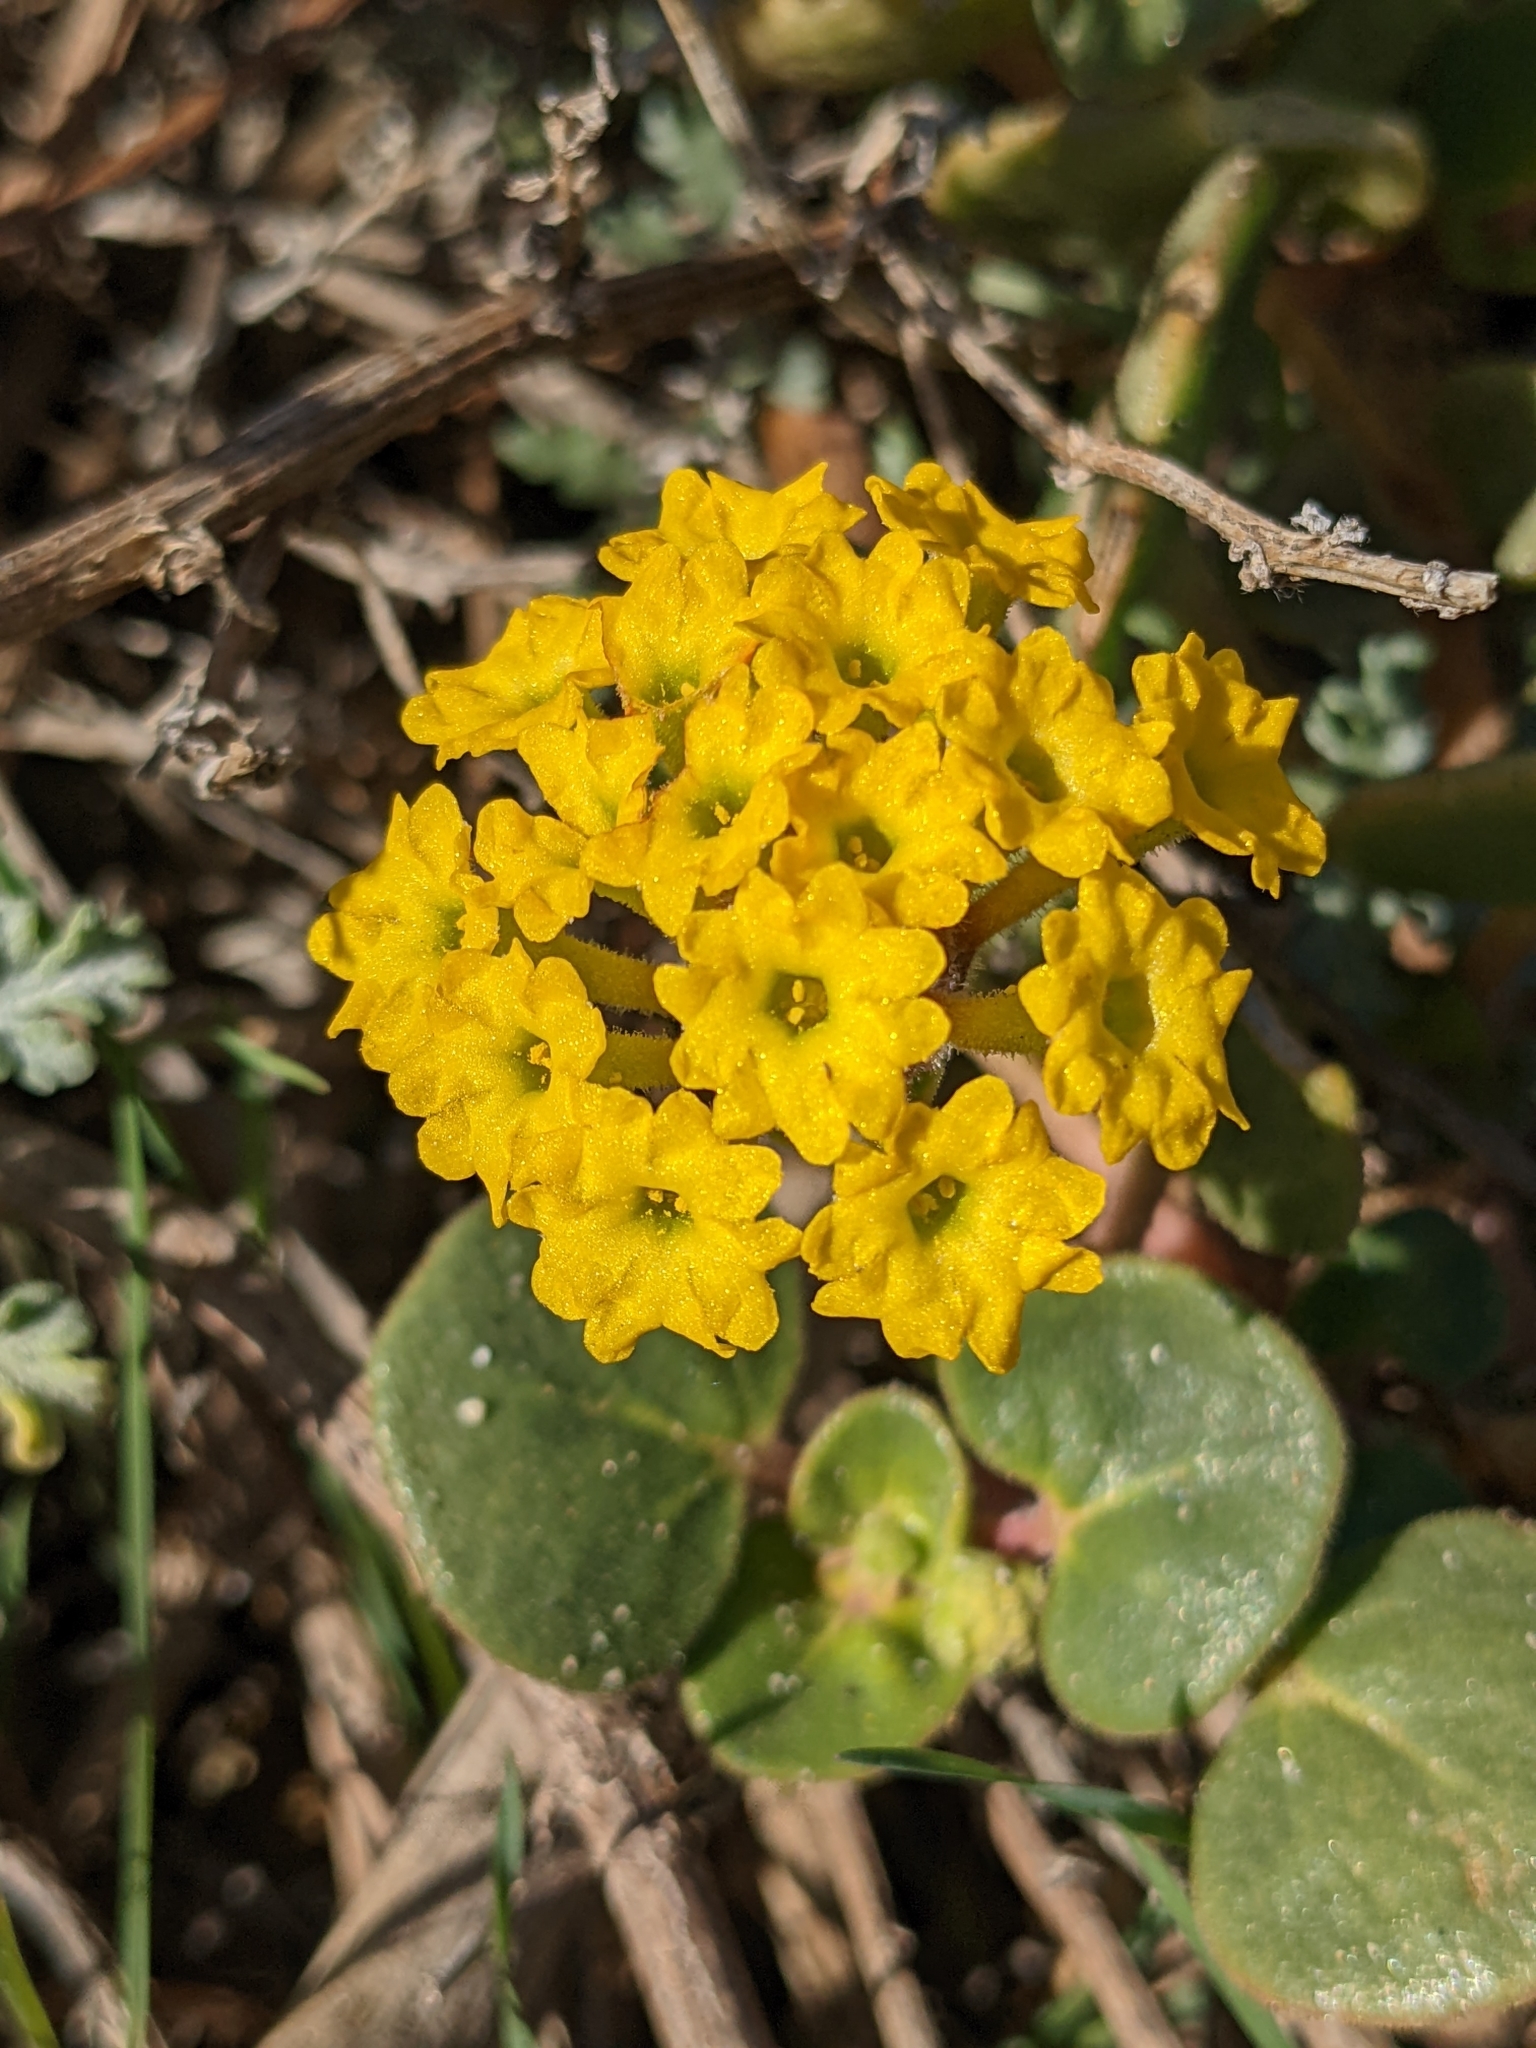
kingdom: Plantae
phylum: Tracheophyta
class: Magnoliopsida
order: Caryophyllales
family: Nyctaginaceae
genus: Abronia
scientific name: Abronia latifolia
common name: Yellow sand-verbena
